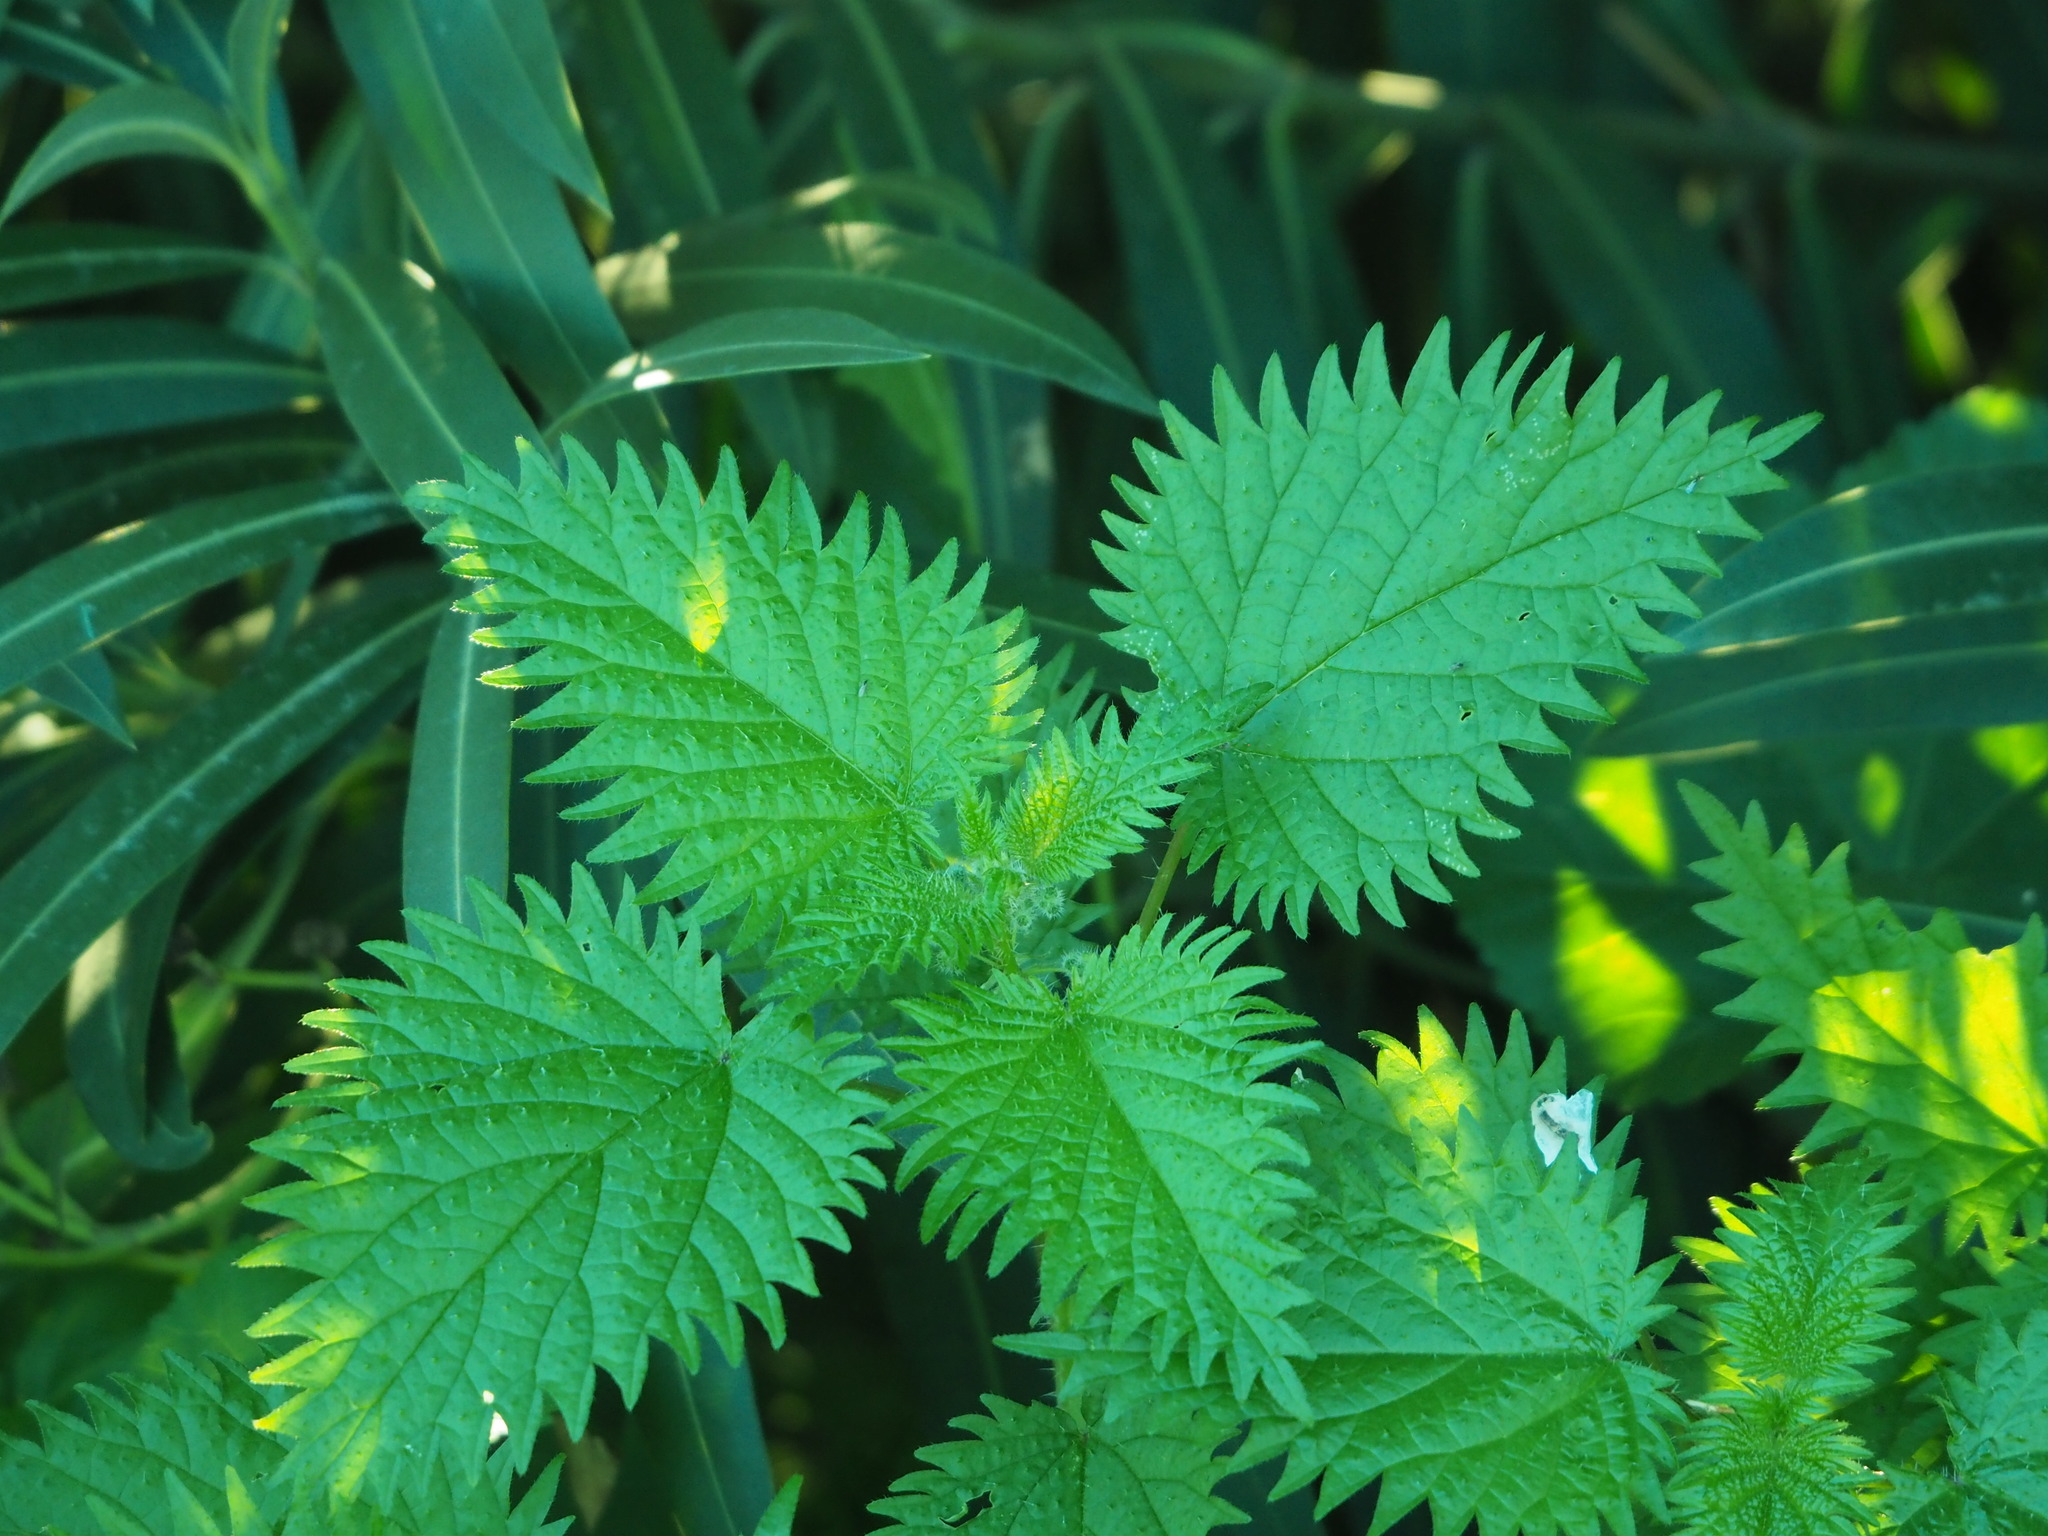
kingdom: Plantae
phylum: Tracheophyta
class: Magnoliopsida
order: Rosales
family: Urticaceae
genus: Urtica
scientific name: Urtica pilulifera
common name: Roman nettle
